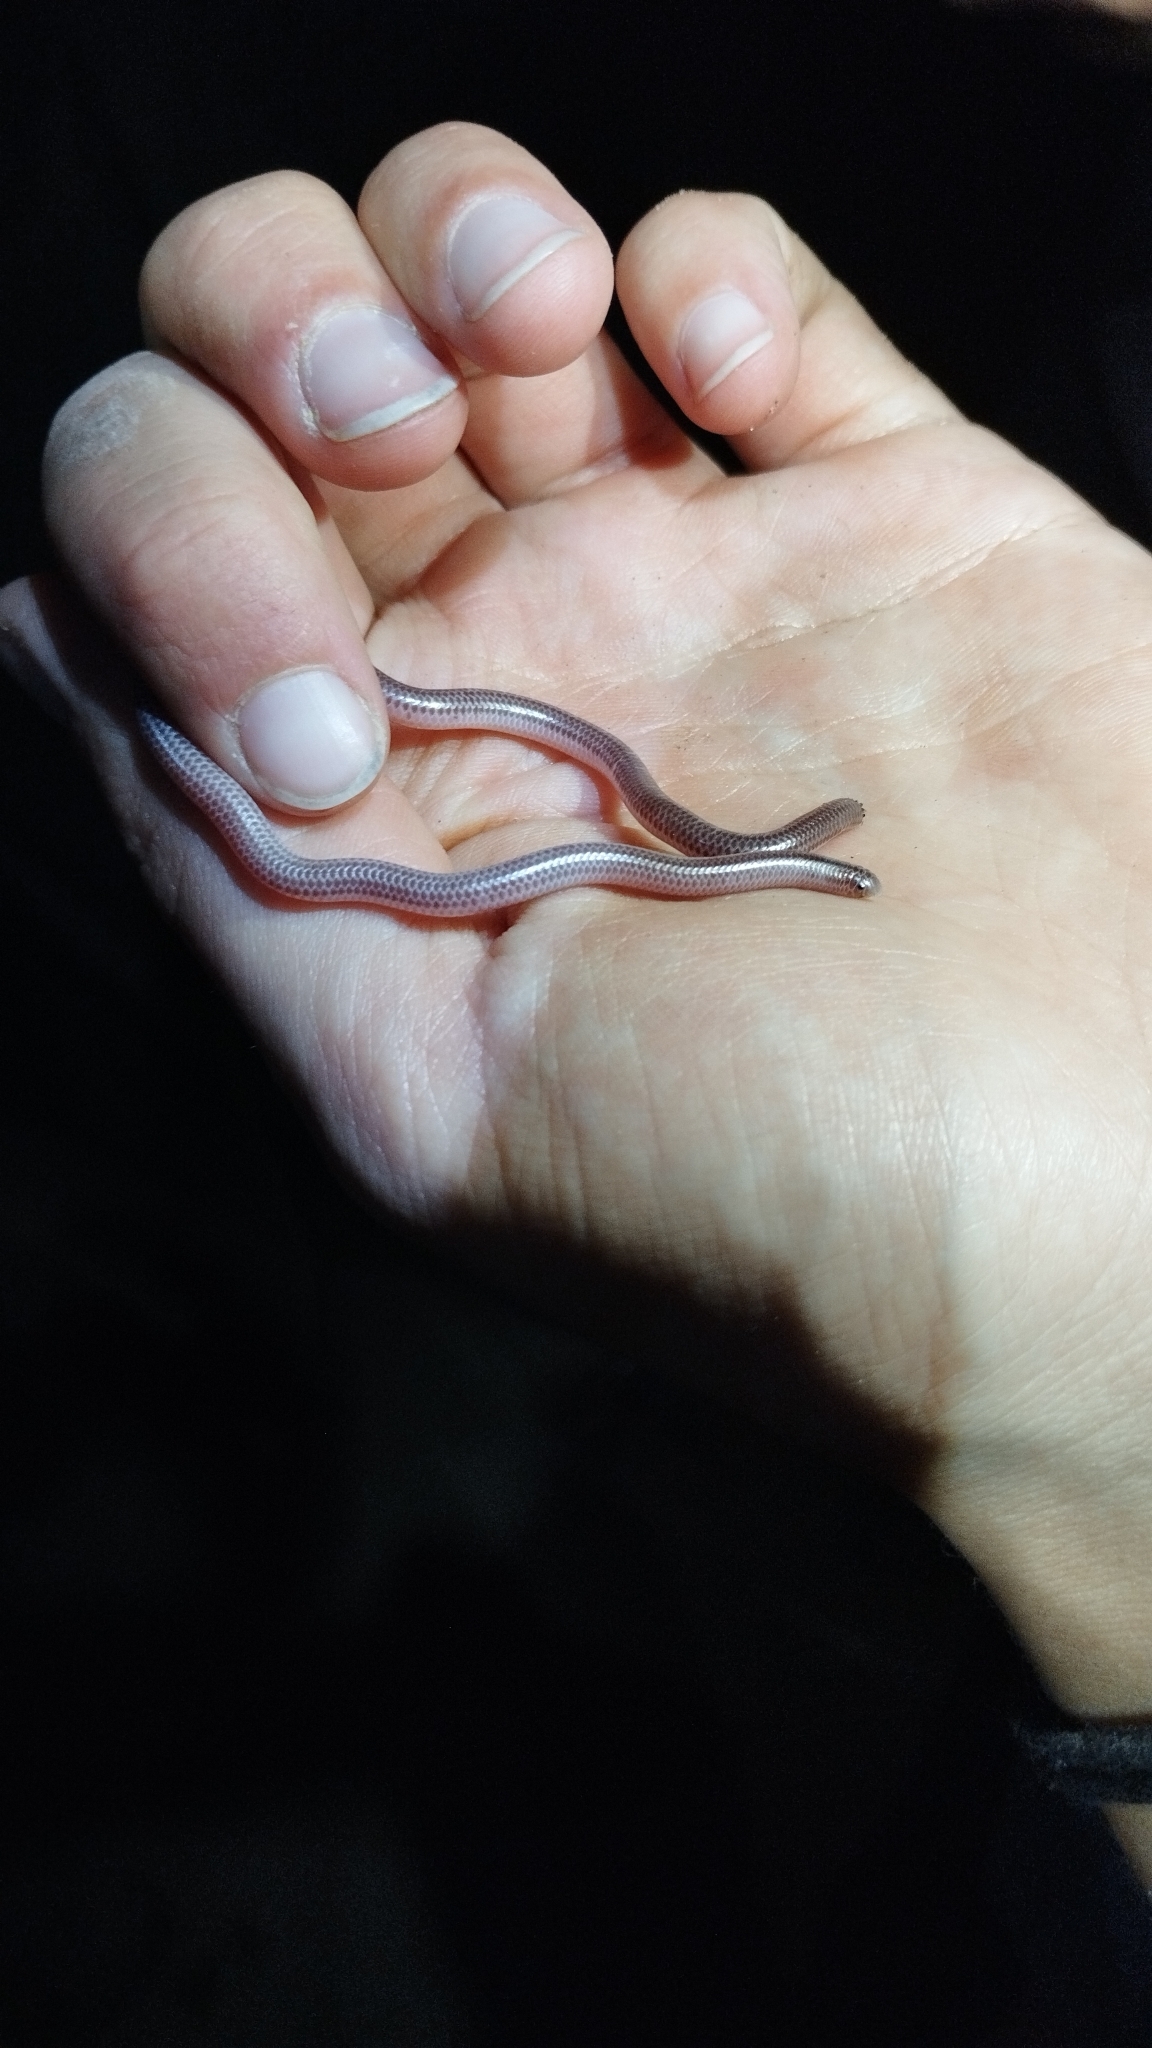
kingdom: Animalia
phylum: Chordata
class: Squamata
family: Leptotyphlopidae
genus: Rena
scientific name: Rena unguirostris
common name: Southern blind snake
